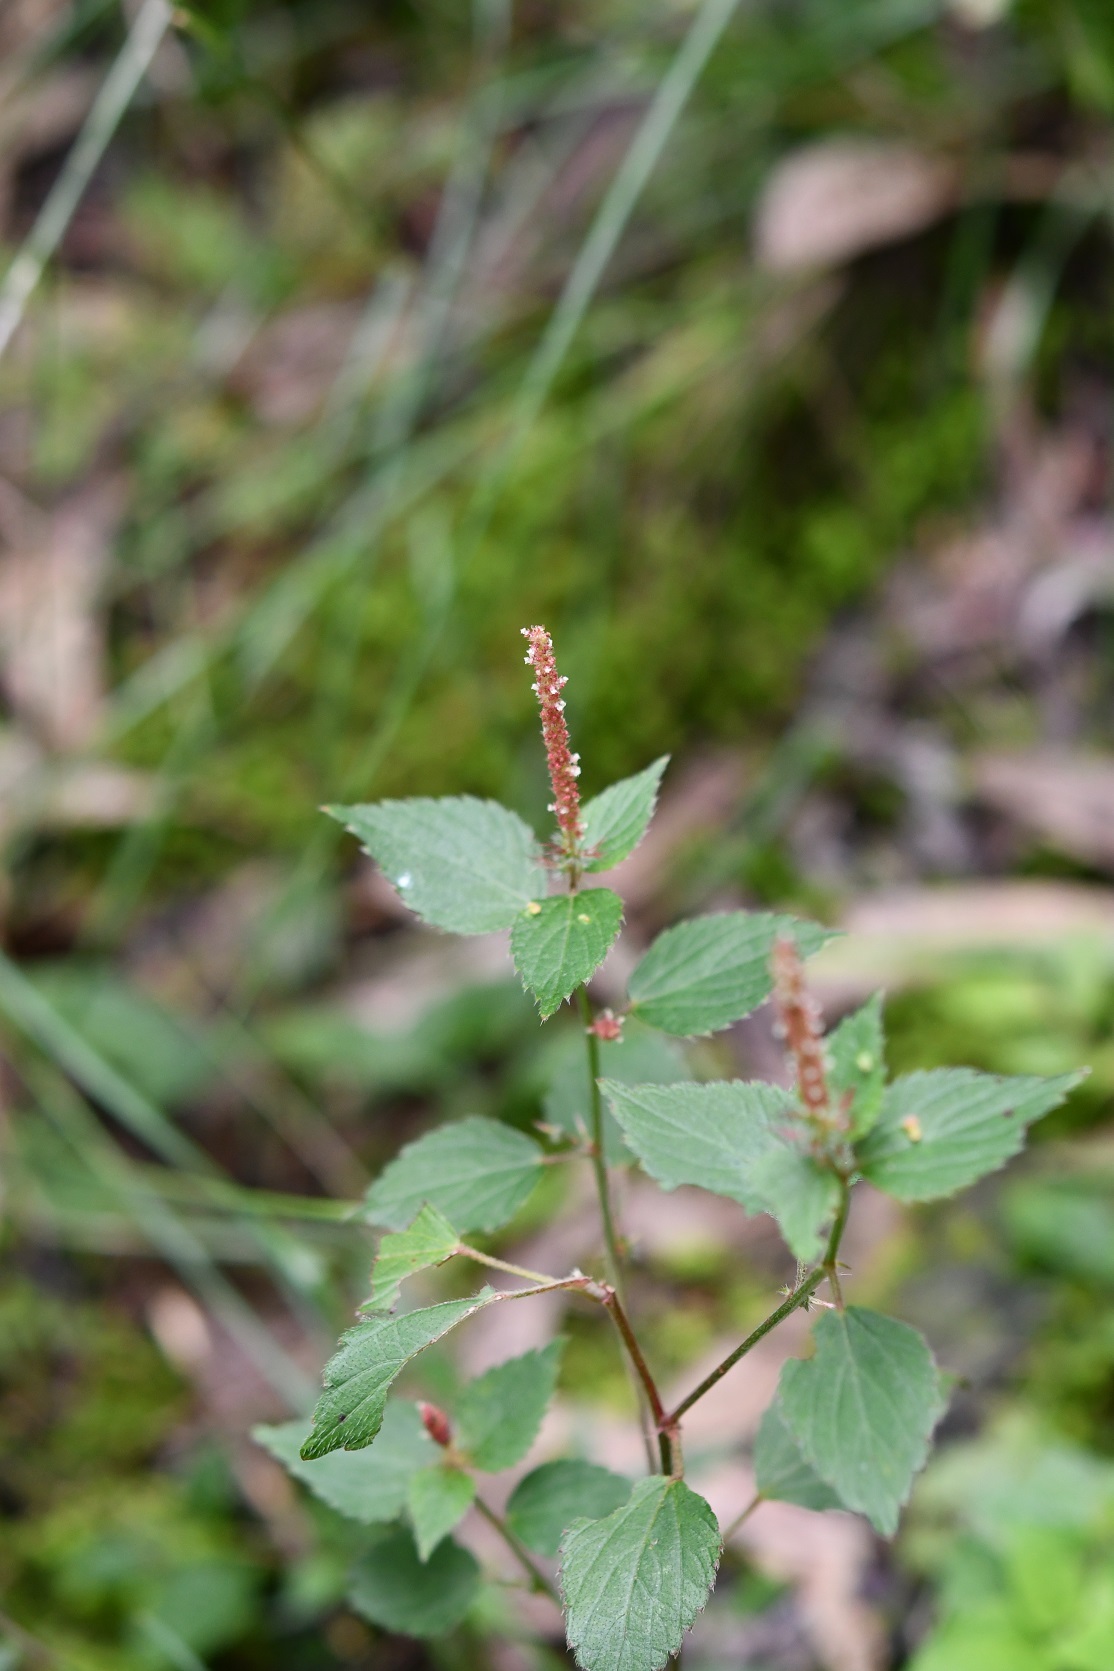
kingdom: Plantae
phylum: Tracheophyta
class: Magnoliopsida
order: Malpighiales
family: Euphorbiaceae
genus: Acalypha
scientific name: Acalypha phleoides
